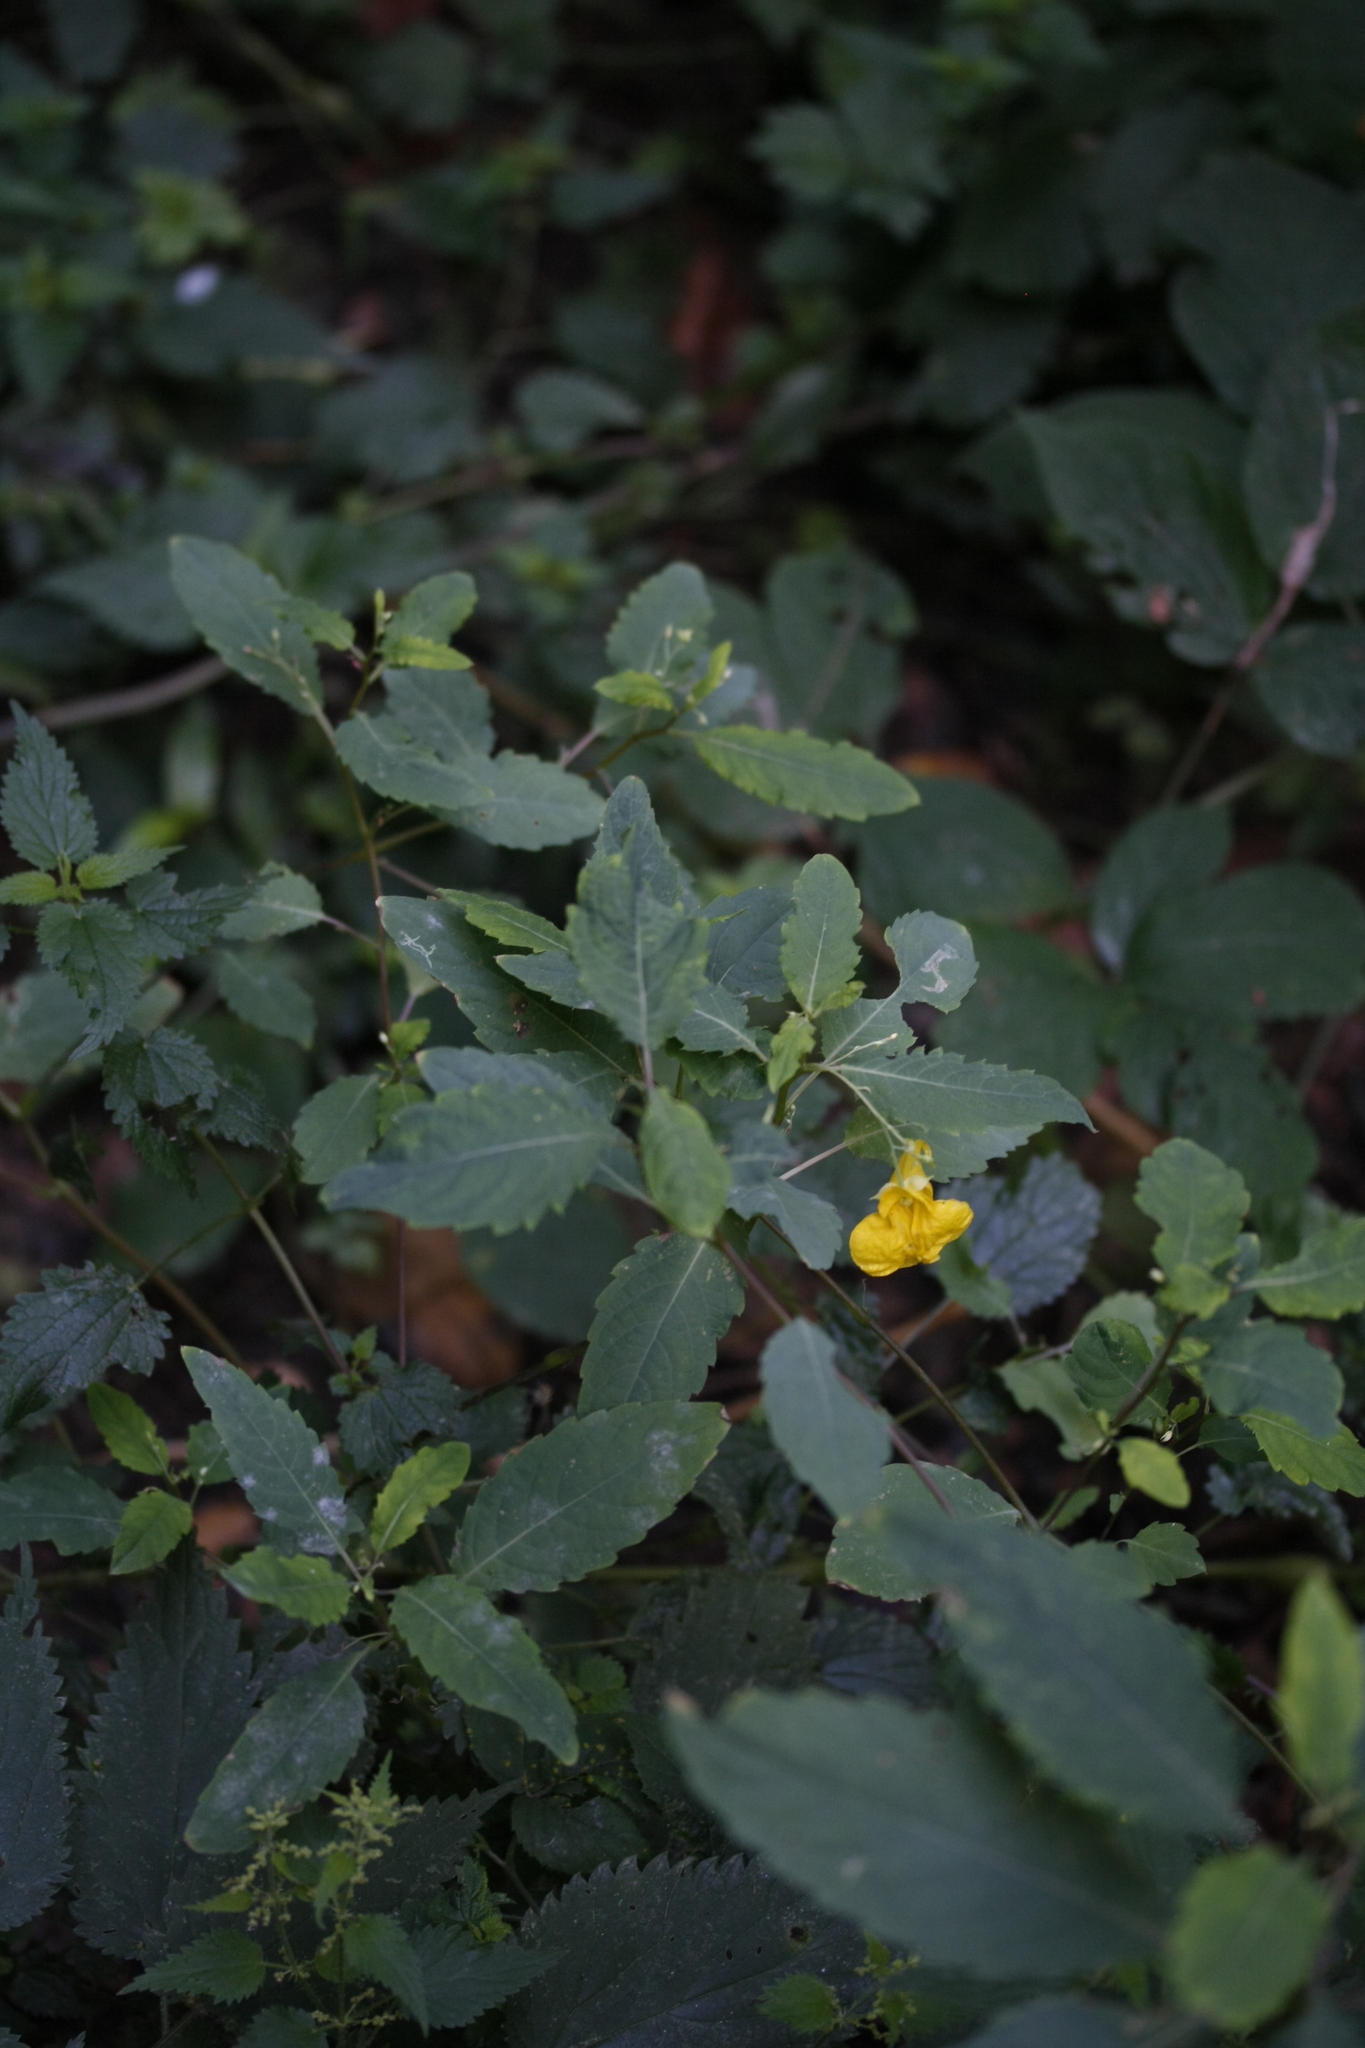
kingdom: Plantae
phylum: Tracheophyta
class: Magnoliopsida
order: Ericales
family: Balsaminaceae
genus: Impatiens
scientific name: Impatiens noli-tangere
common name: Touch-me-not balsam
